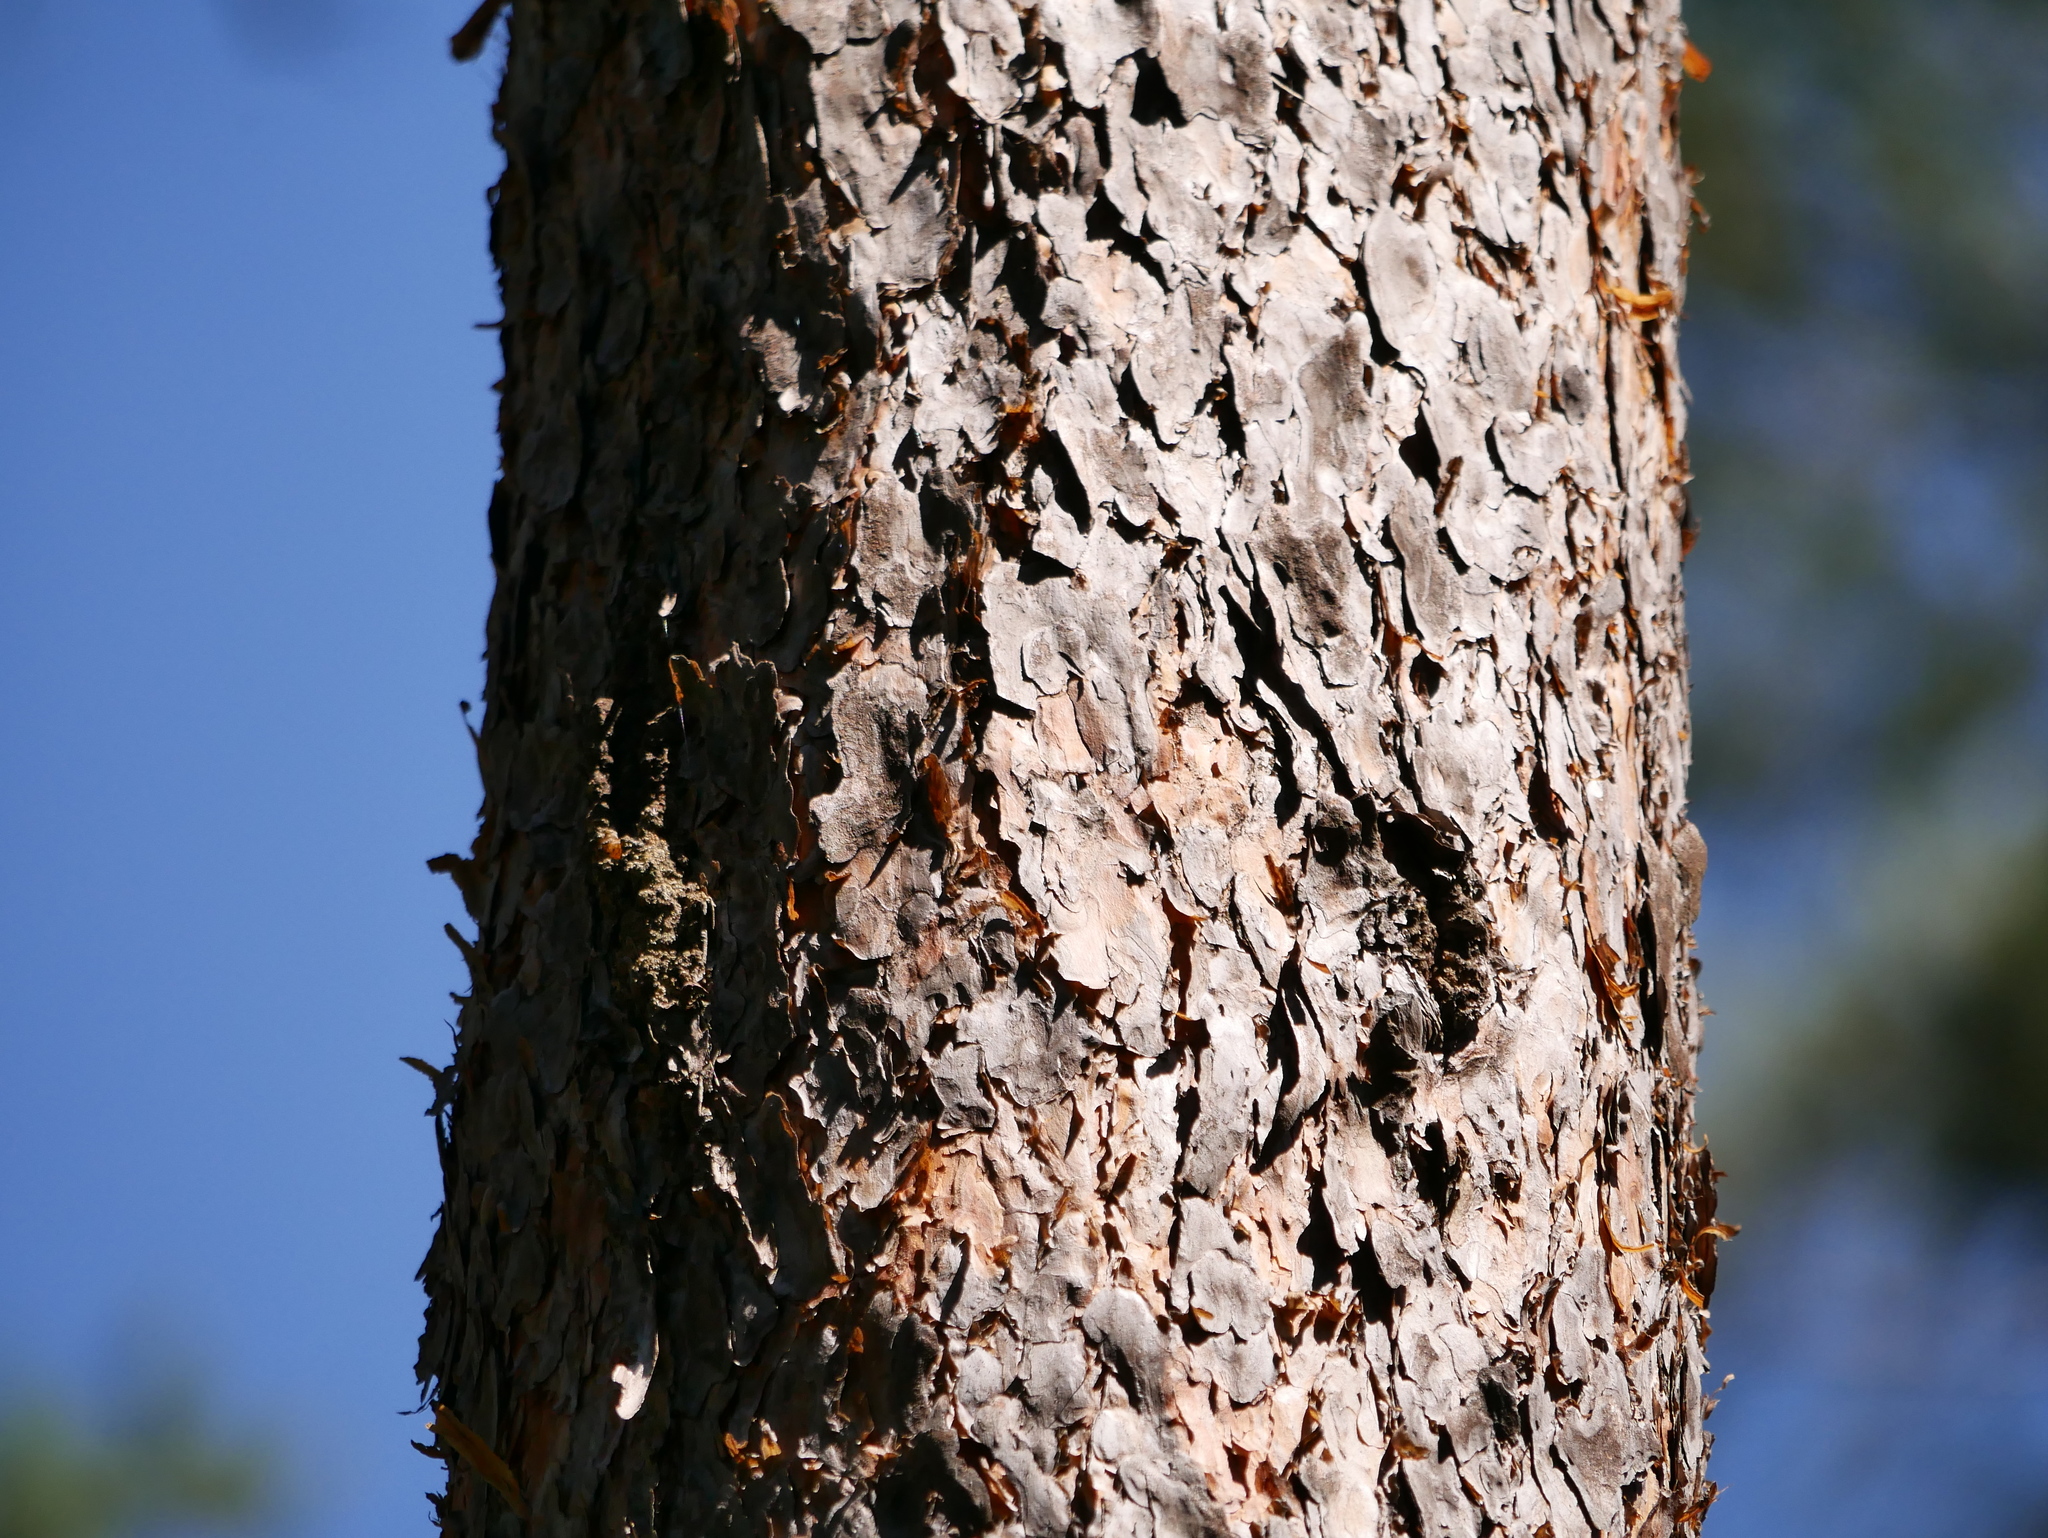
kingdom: Plantae
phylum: Tracheophyta
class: Pinopsida
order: Pinales
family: Pinaceae
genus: Pinus
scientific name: Pinus sylvestris
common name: Scots pine
